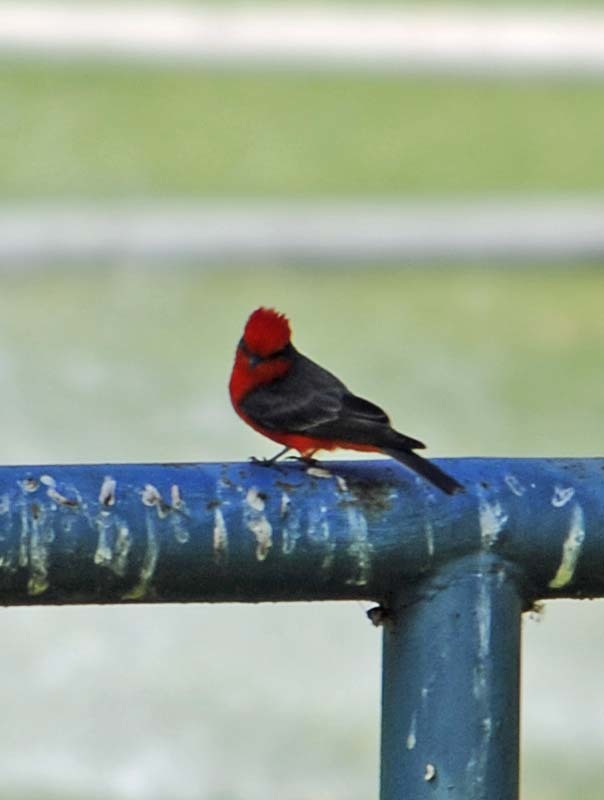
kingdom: Animalia
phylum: Chordata
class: Aves
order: Passeriformes
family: Tyrannidae
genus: Pyrocephalus
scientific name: Pyrocephalus rubinus
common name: Vermilion flycatcher
